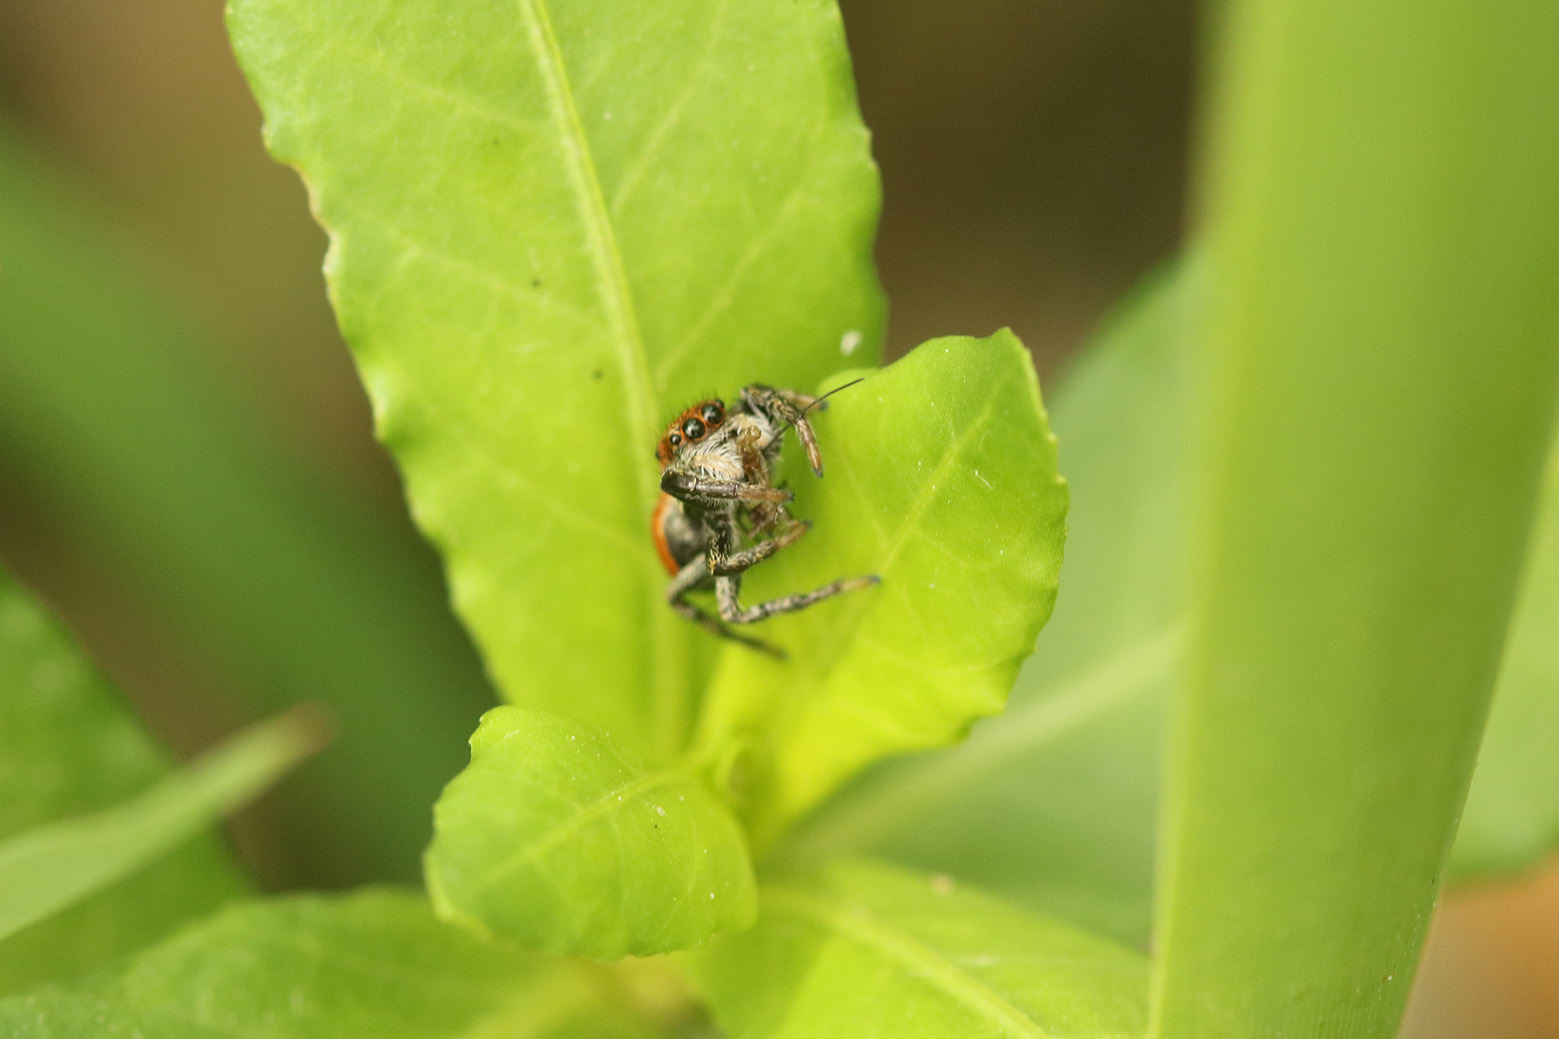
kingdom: Animalia
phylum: Arthropoda
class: Arachnida
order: Araneae
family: Salticidae
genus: Phiale
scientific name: Phiale roburifoliata
